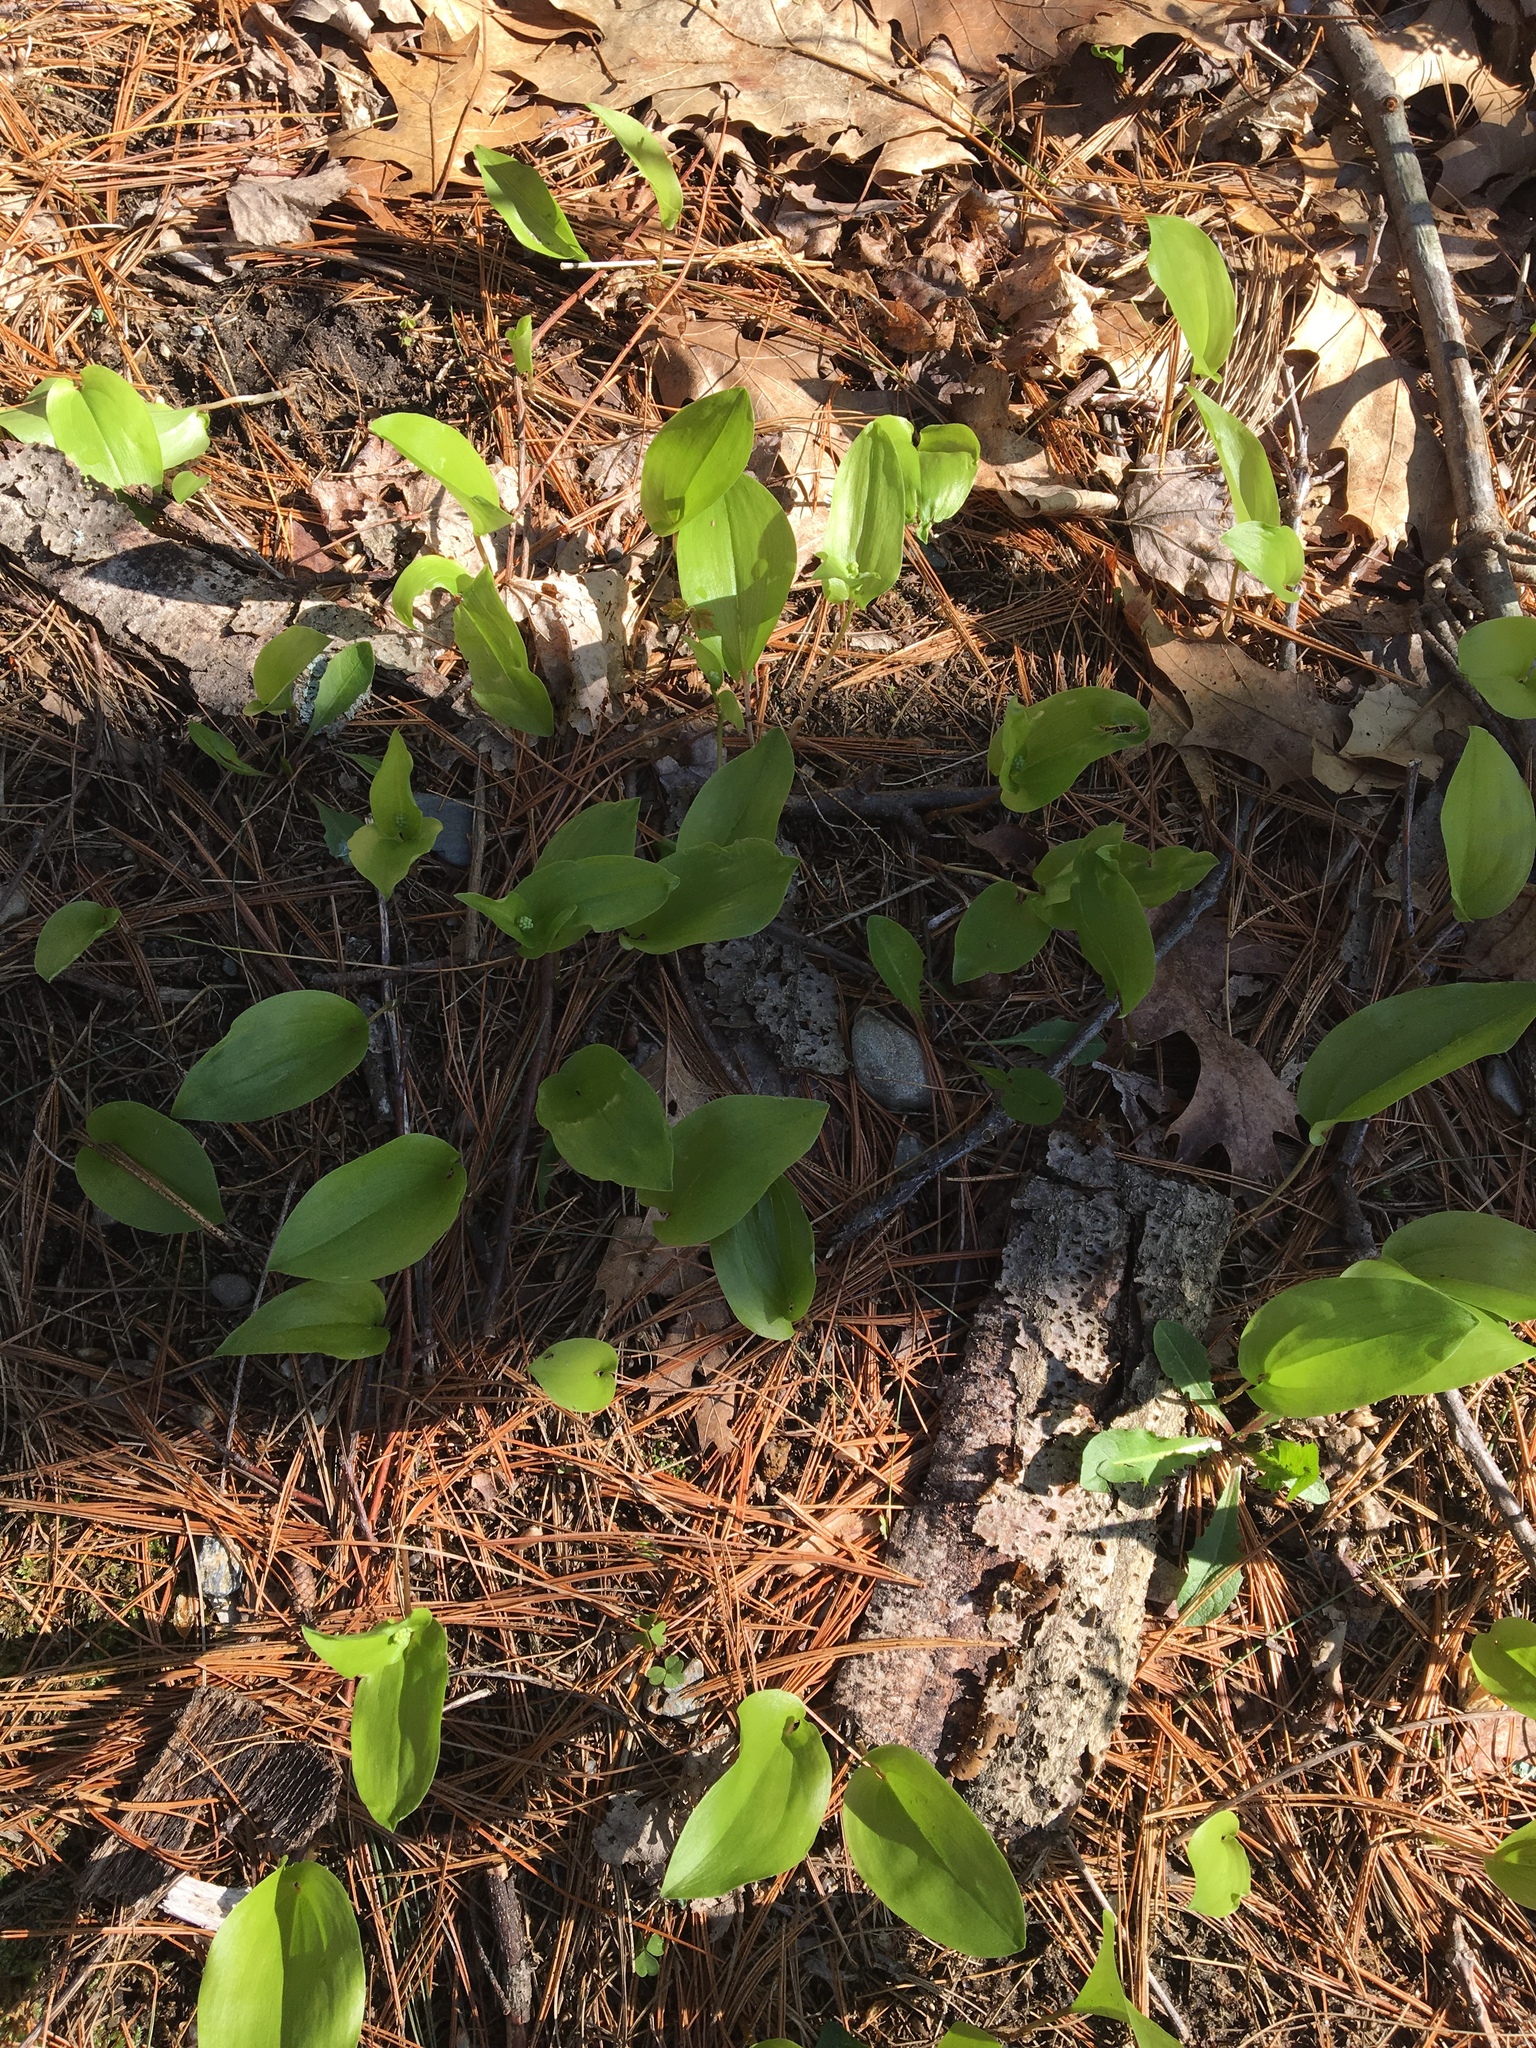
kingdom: Plantae
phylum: Tracheophyta
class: Liliopsida
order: Asparagales
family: Asparagaceae
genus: Maianthemum
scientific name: Maianthemum canadense
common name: False lily-of-the-valley
